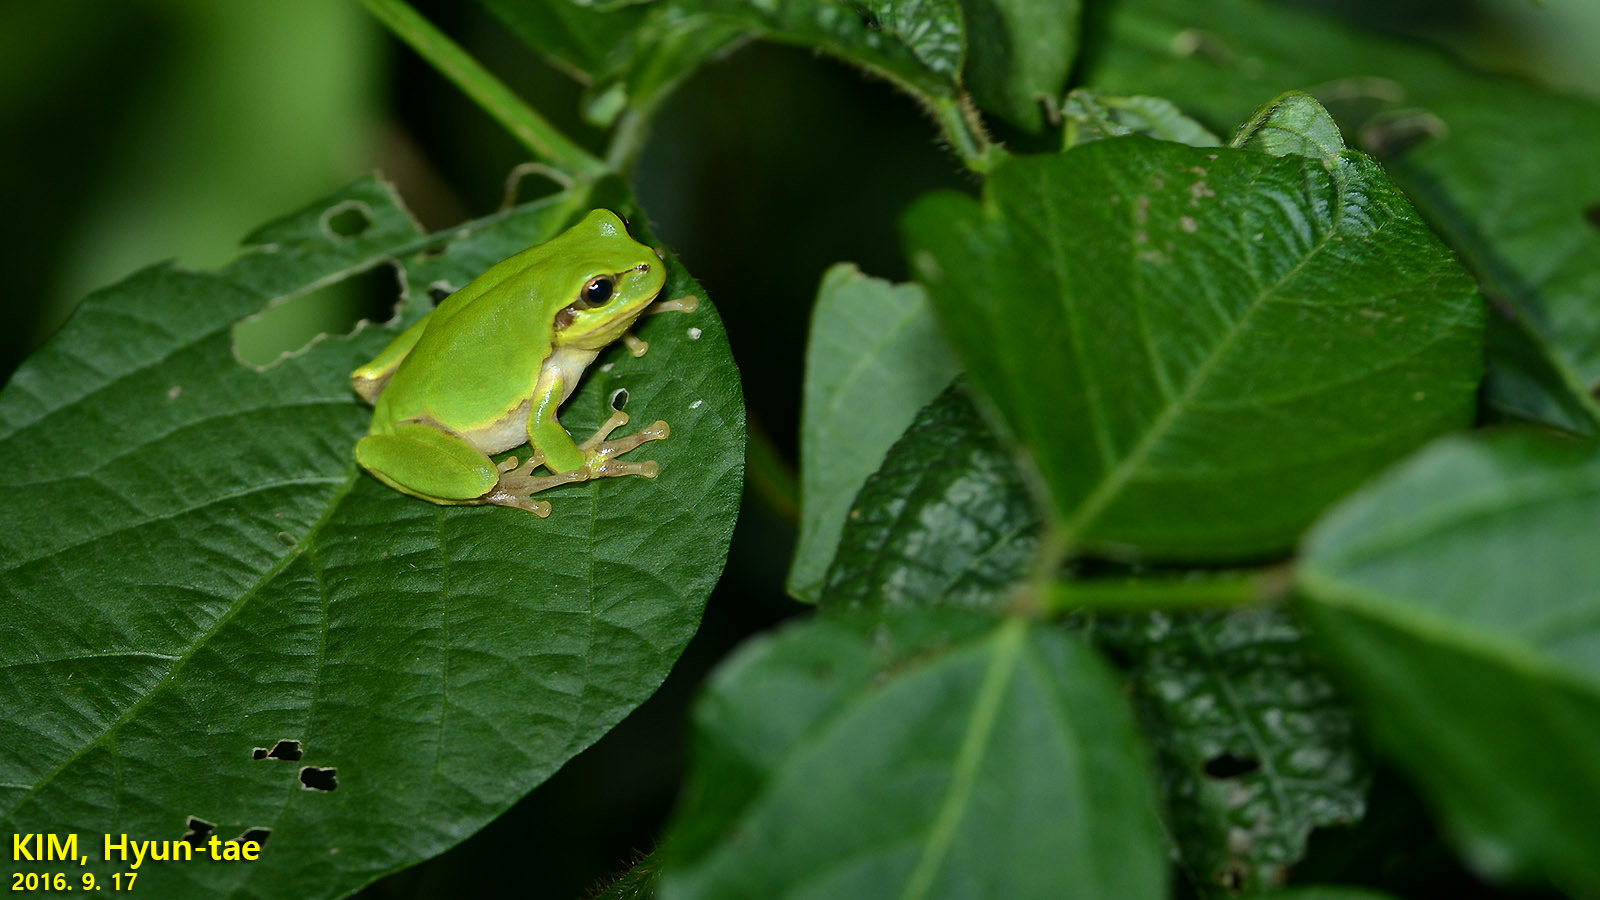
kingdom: Animalia
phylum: Chordata
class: Amphibia
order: Anura
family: Hylidae
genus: Dryophytes
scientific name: Dryophytes japonicus
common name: Japanese treefrog
